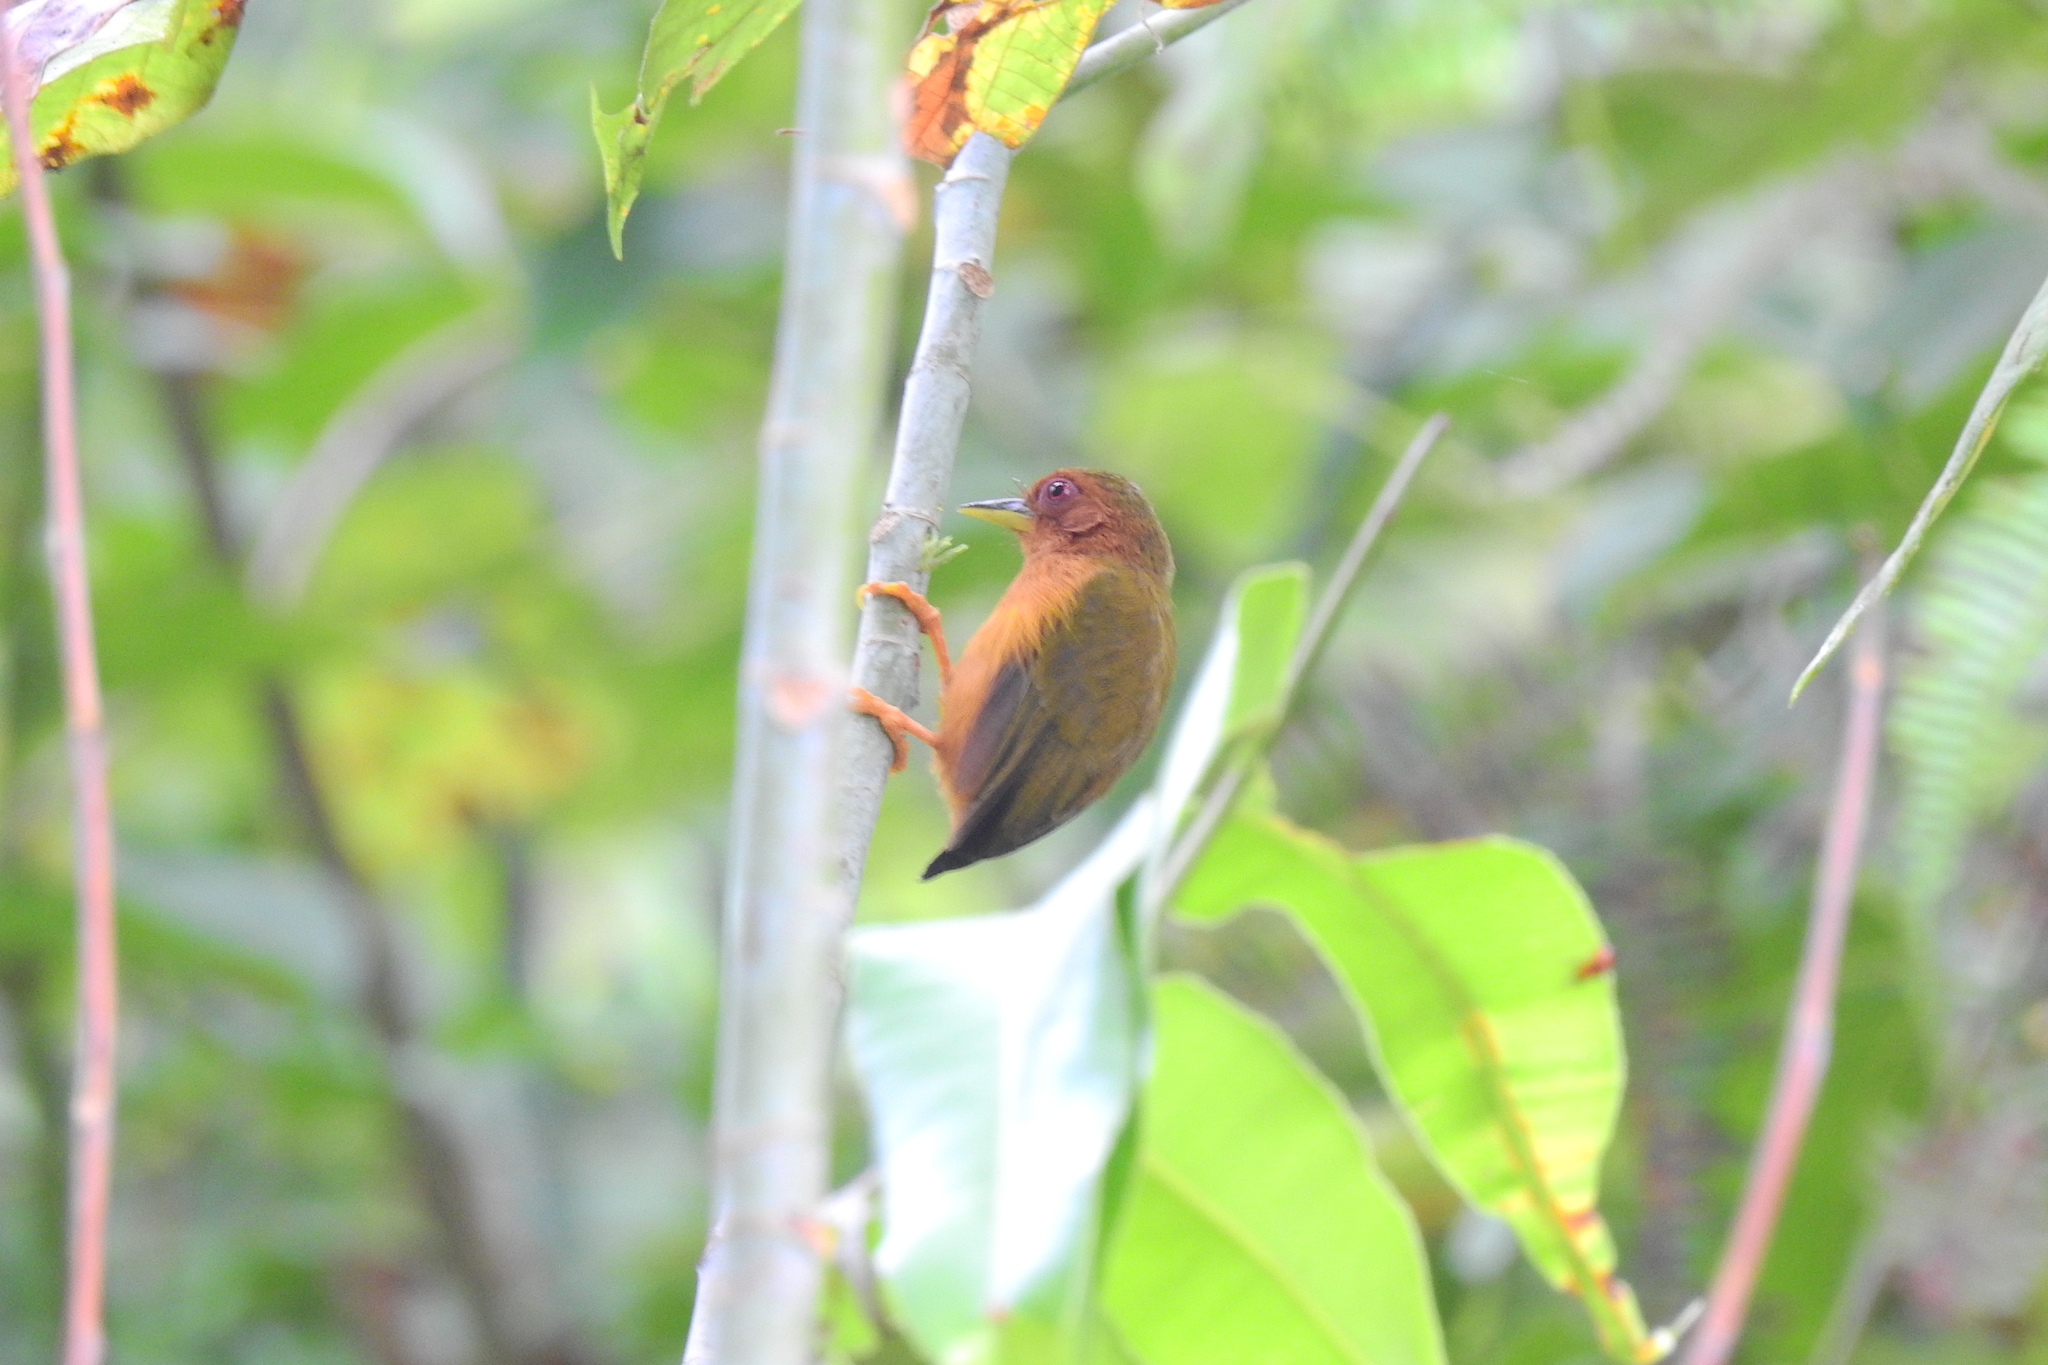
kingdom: Animalia
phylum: Chordata
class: Aves
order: Piciformes
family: Picidae
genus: Sasia
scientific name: Sasia abnormis
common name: Rufous piculet
